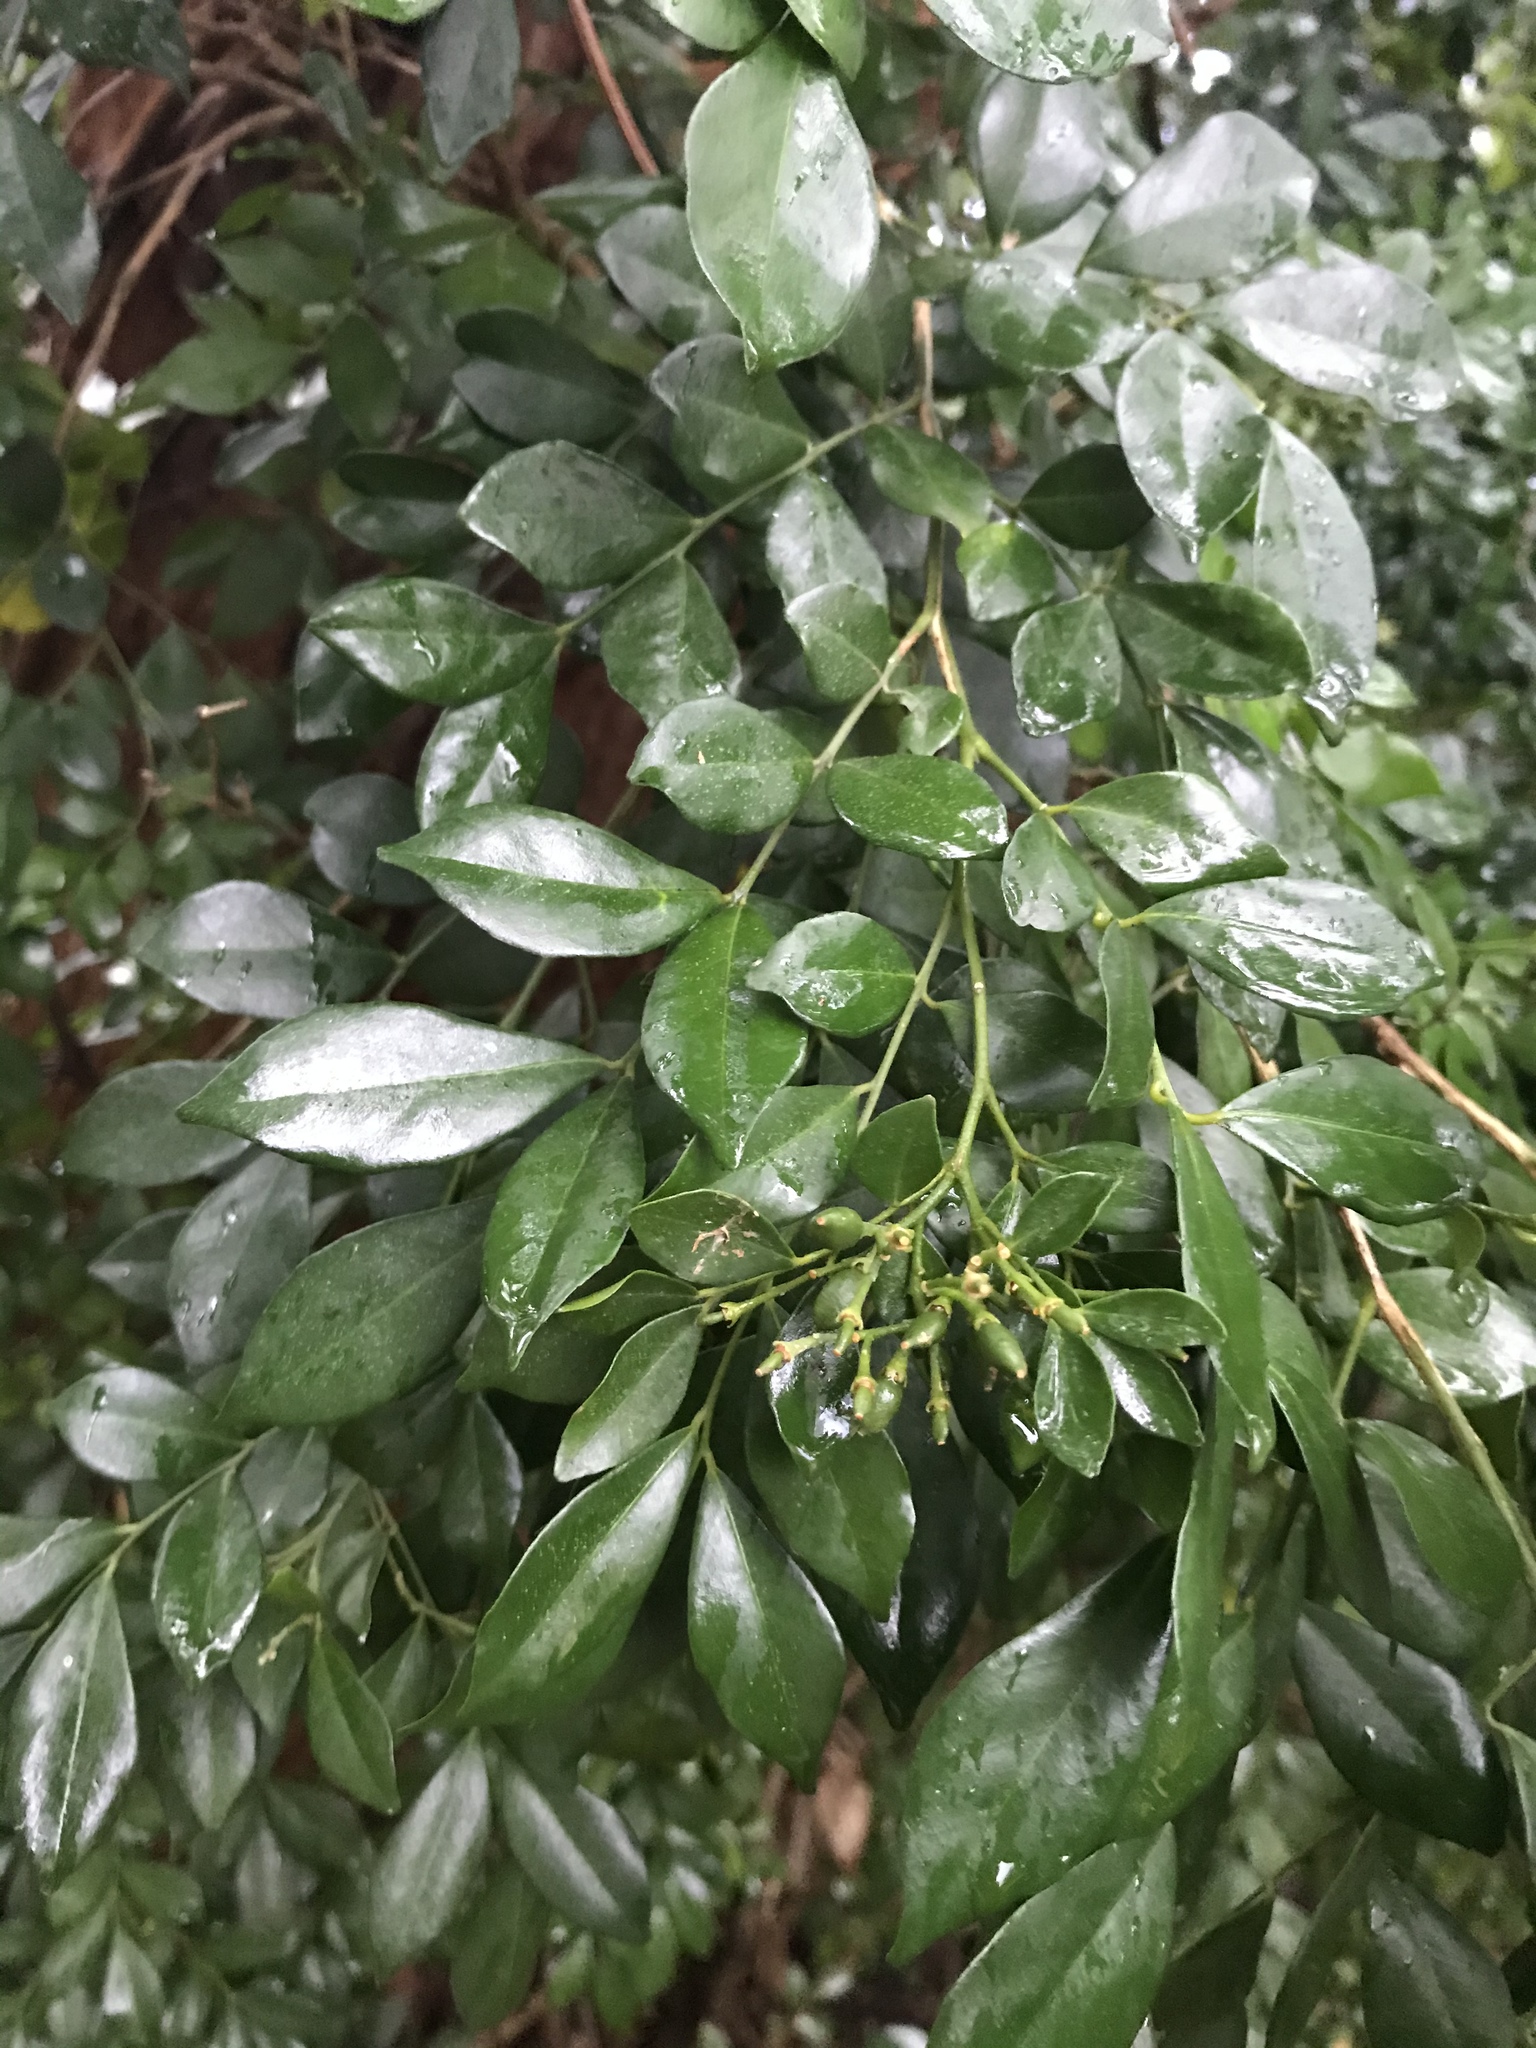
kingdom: Plantae
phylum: Tracheophyta
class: Magnoliopsida
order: Sapindales
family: Rutaceae
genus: Murraya
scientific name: Murraya paniculata
